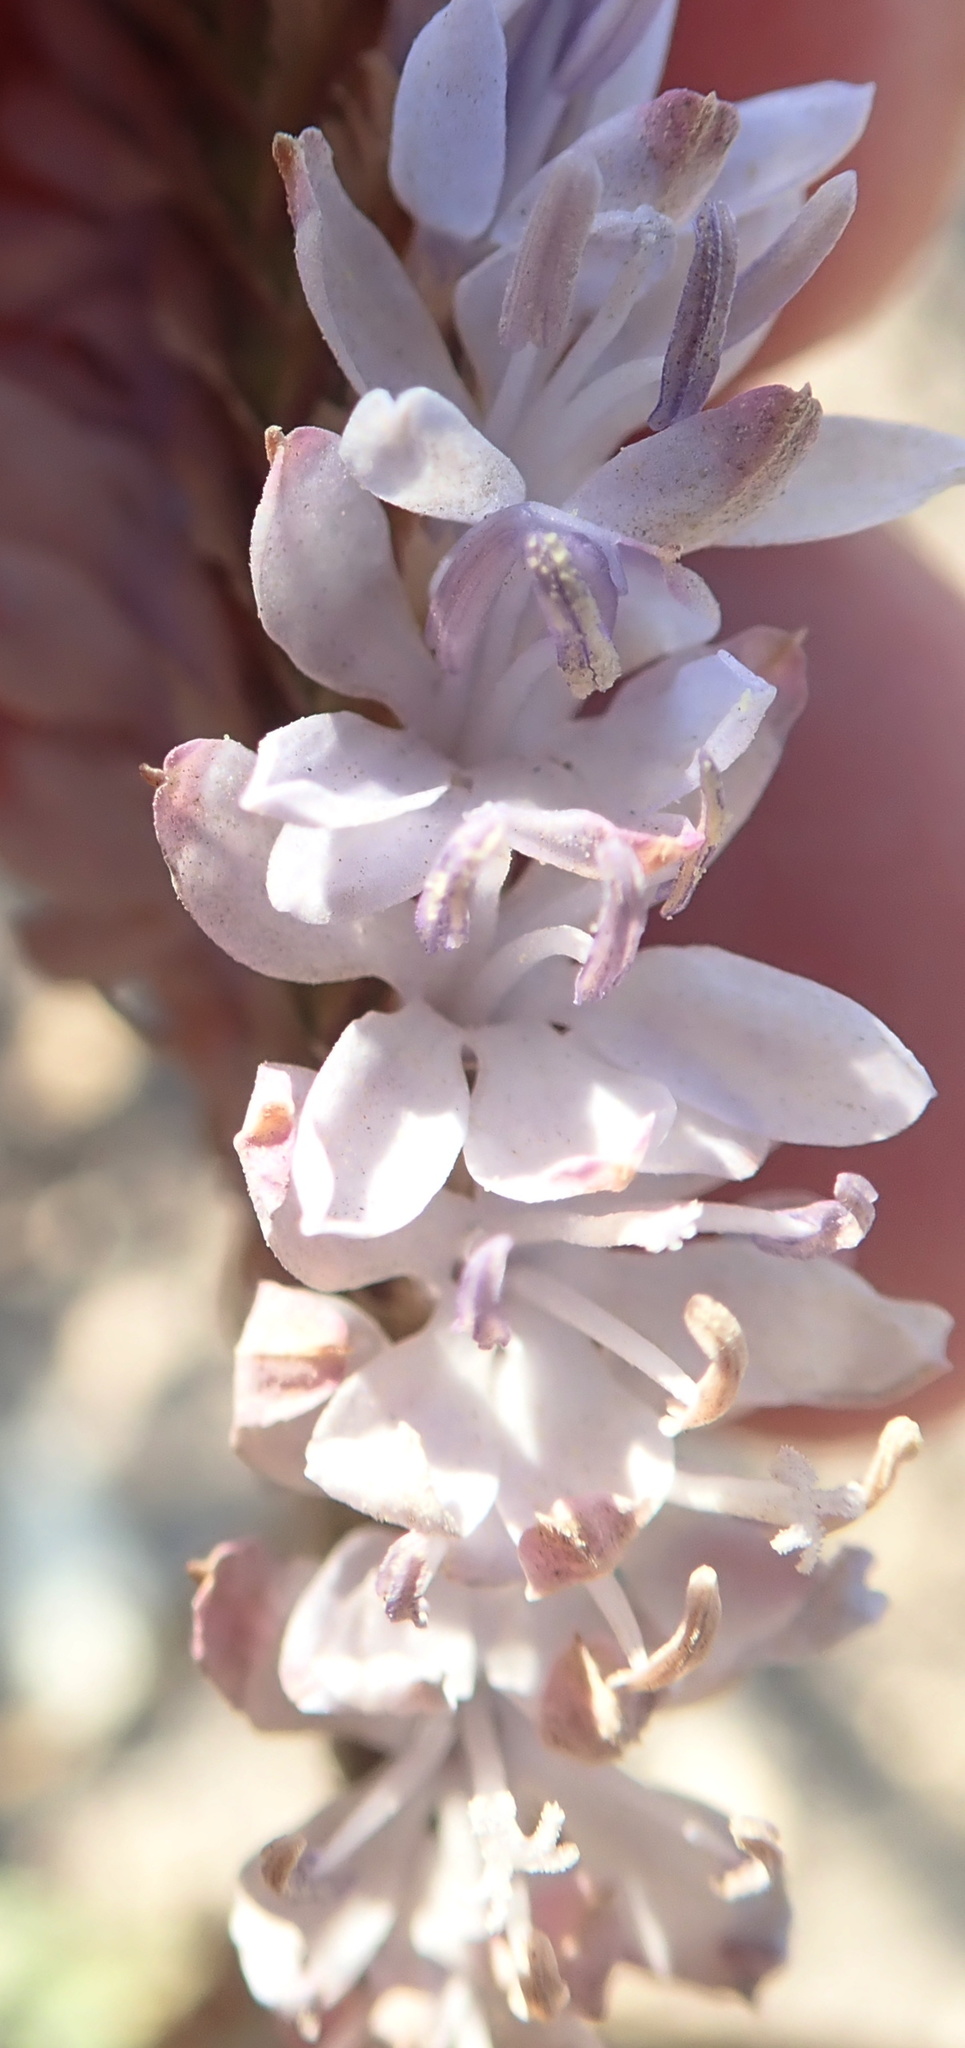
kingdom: Plantae
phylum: Tracheophyta
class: Liliopsida
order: Asparagales
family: Iridaceae
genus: Micranthus
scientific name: Micranthus plantagineus
